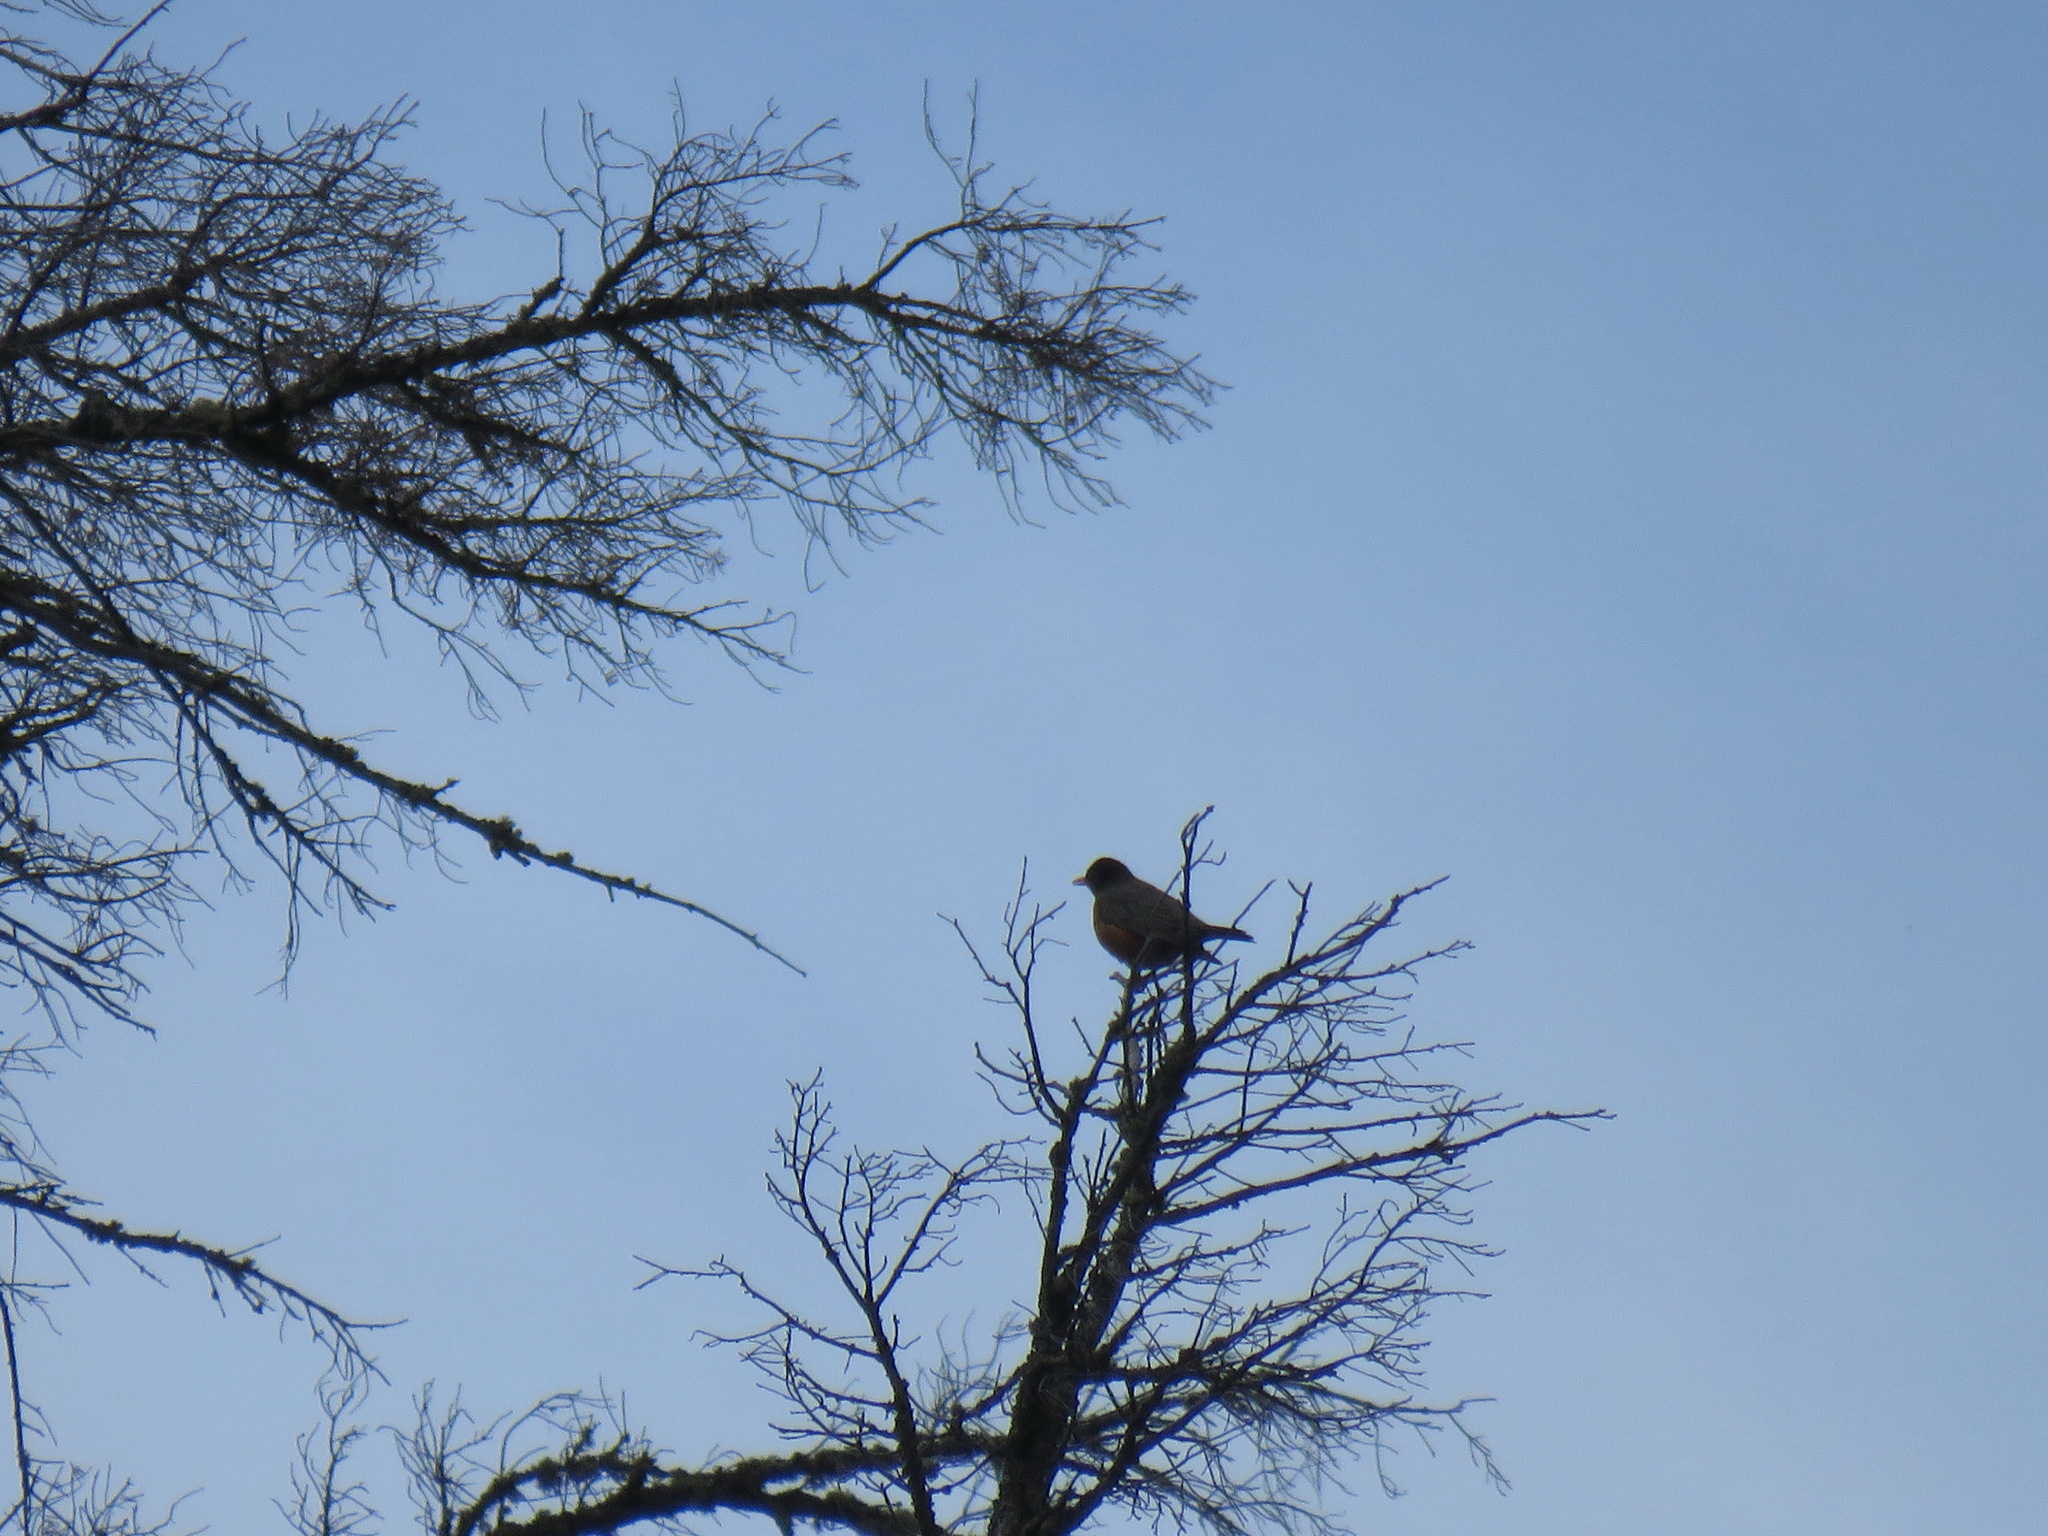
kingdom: Animalia
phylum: Chordata
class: Aves
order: Passeriformes
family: Turdidae
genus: Turdus
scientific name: Turdus migratorius
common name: American robin
